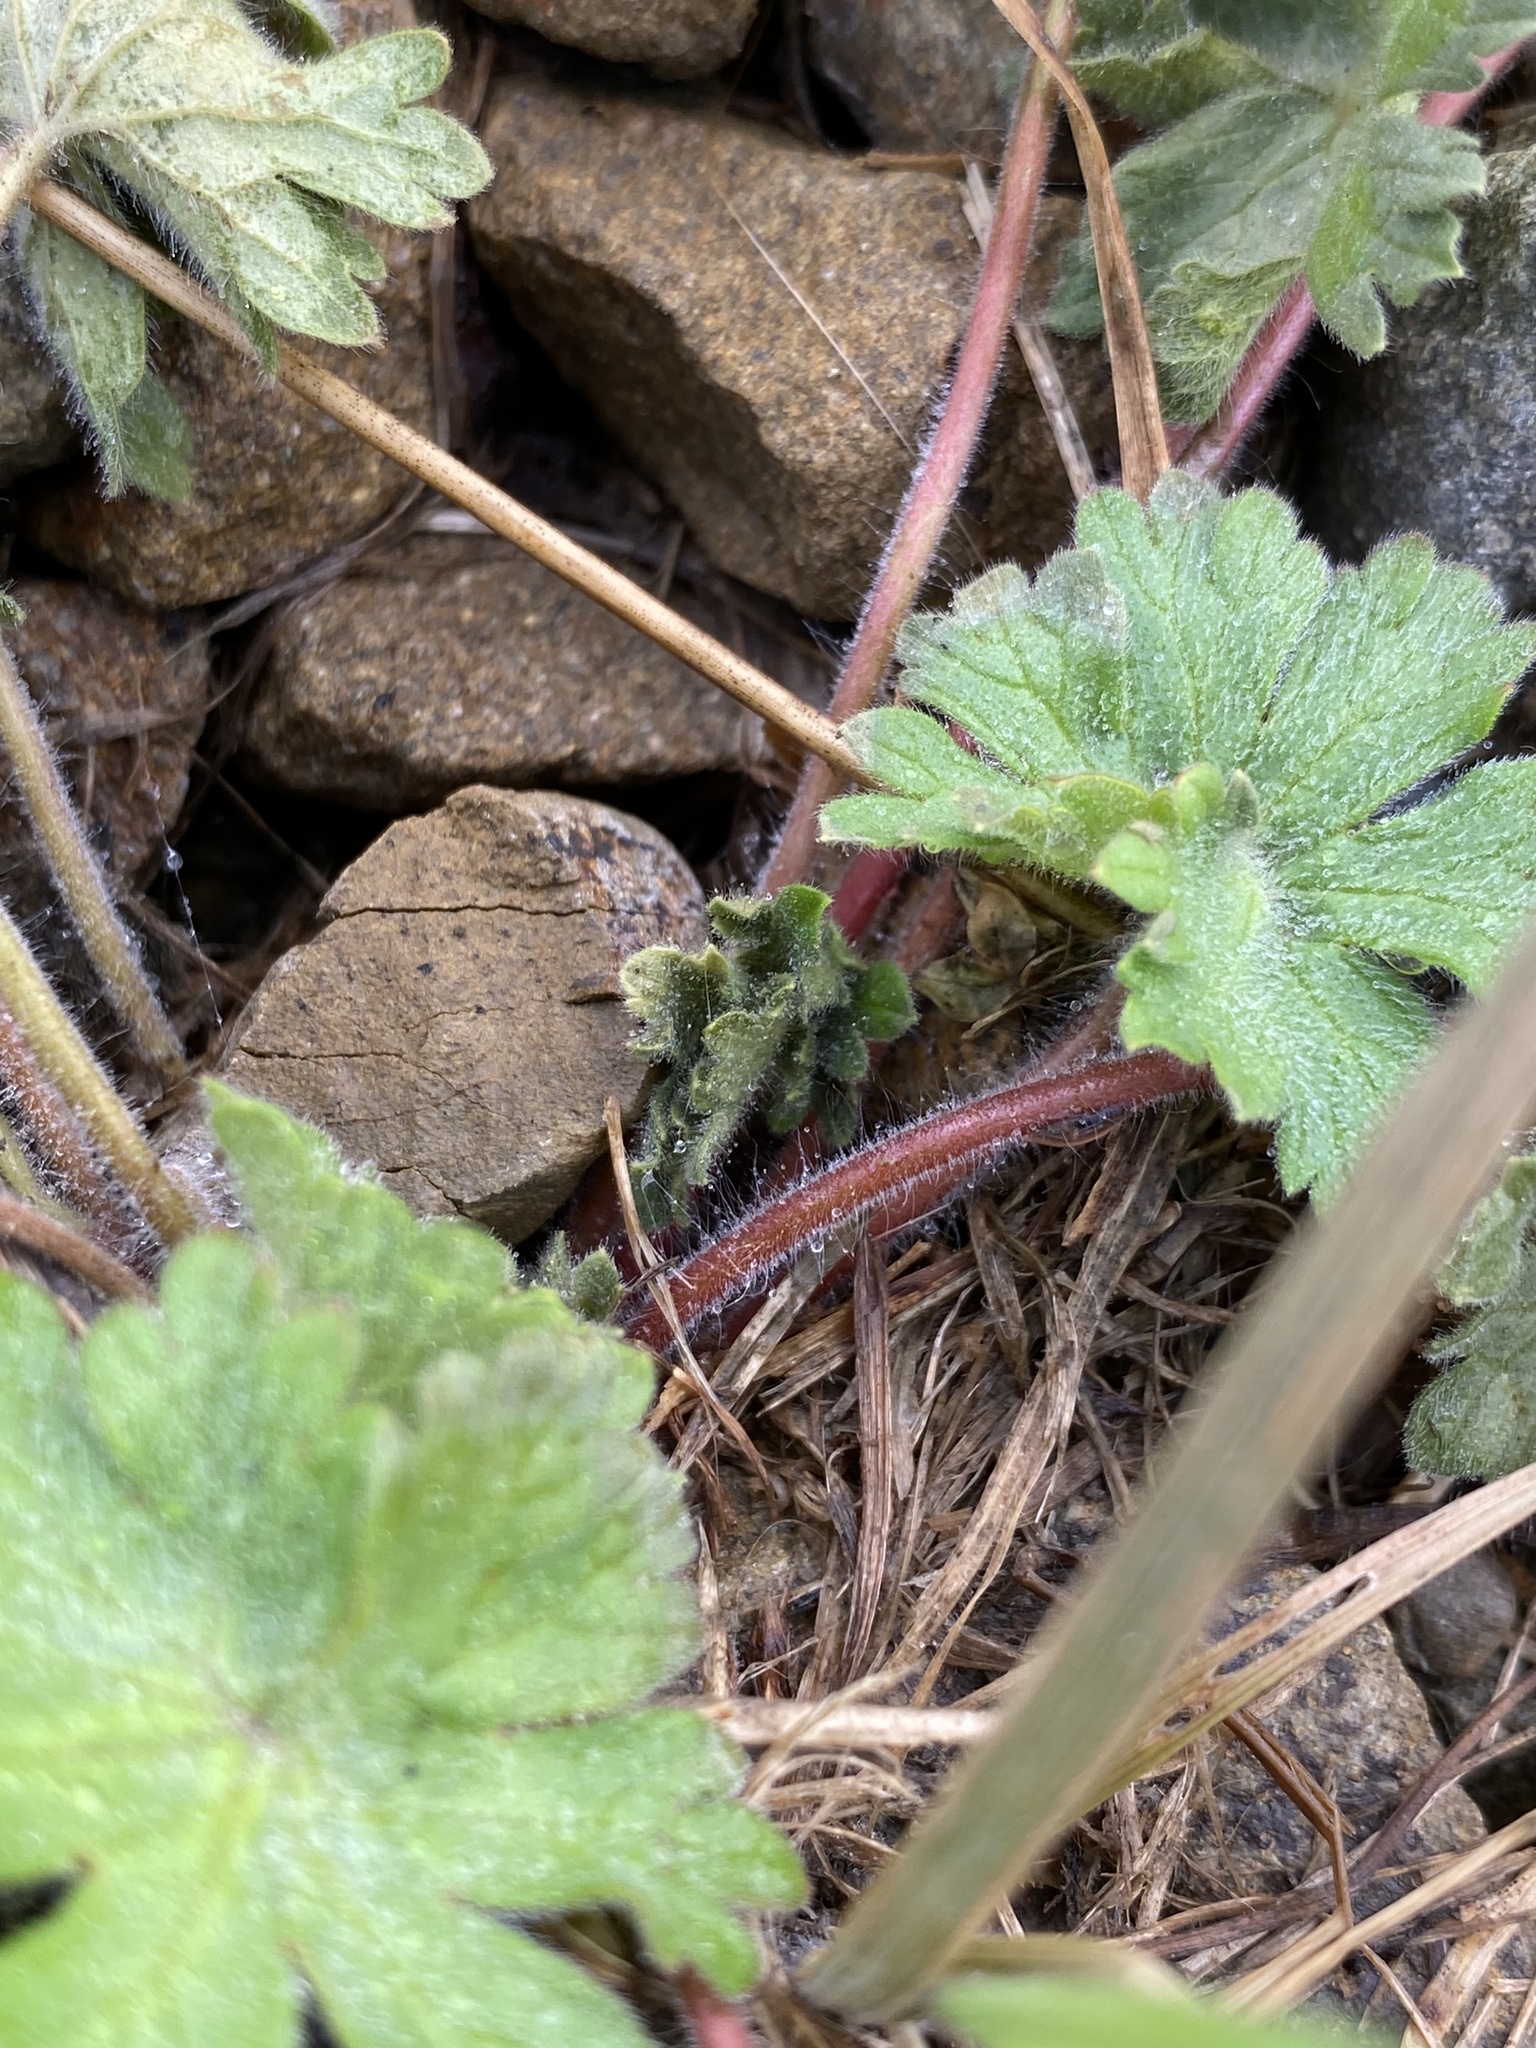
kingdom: Plantae
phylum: Tracheophyta
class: Magnoliopsida
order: Geraniales
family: Geraniaceae
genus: Geranium
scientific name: Geranium molle
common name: Dove's-foot crane's-bill
